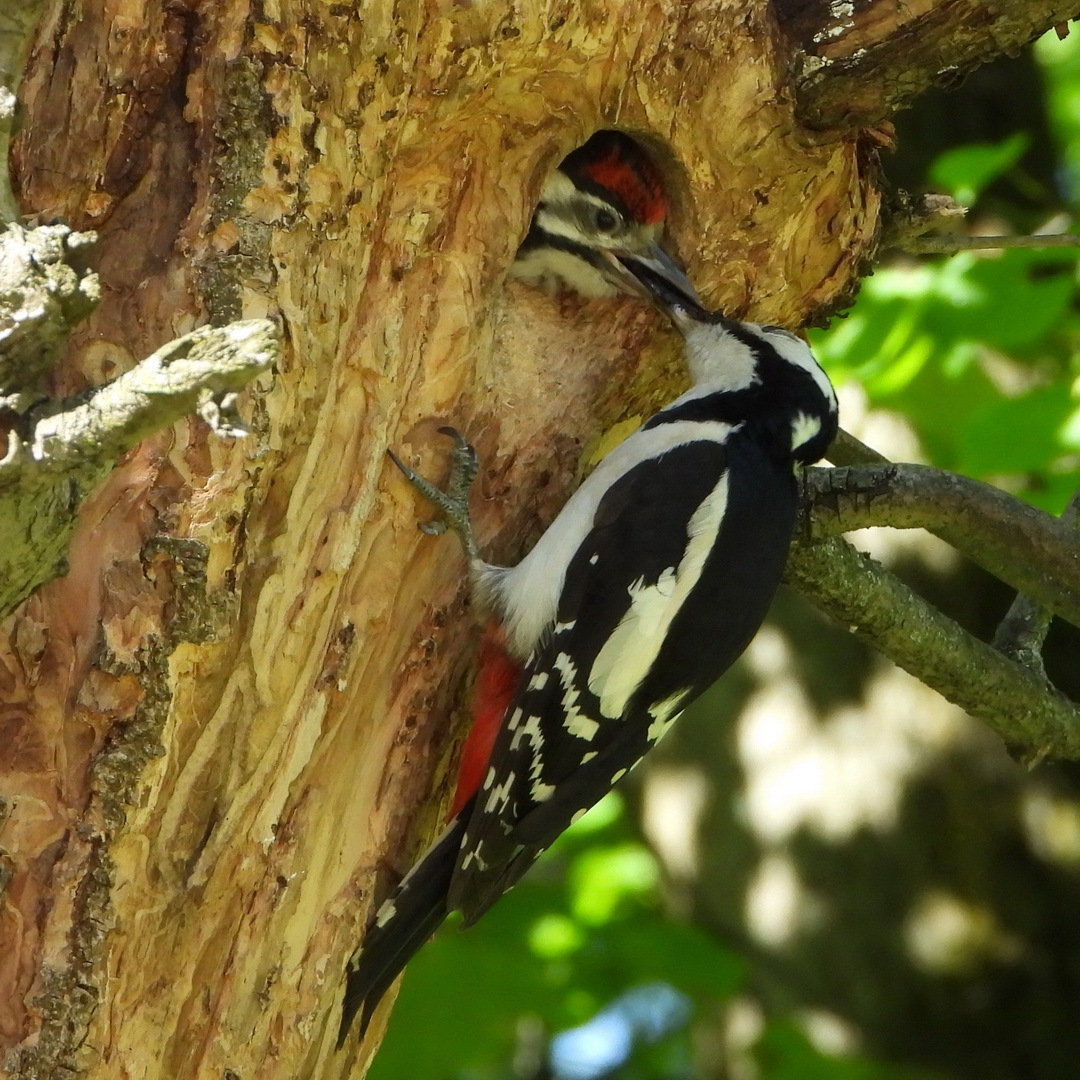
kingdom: Animalia
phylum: Chordata
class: Aves
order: Piciformes
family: Picidae
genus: Dendrocopos
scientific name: Dendrocopos major
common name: Great spotted woodpecker
